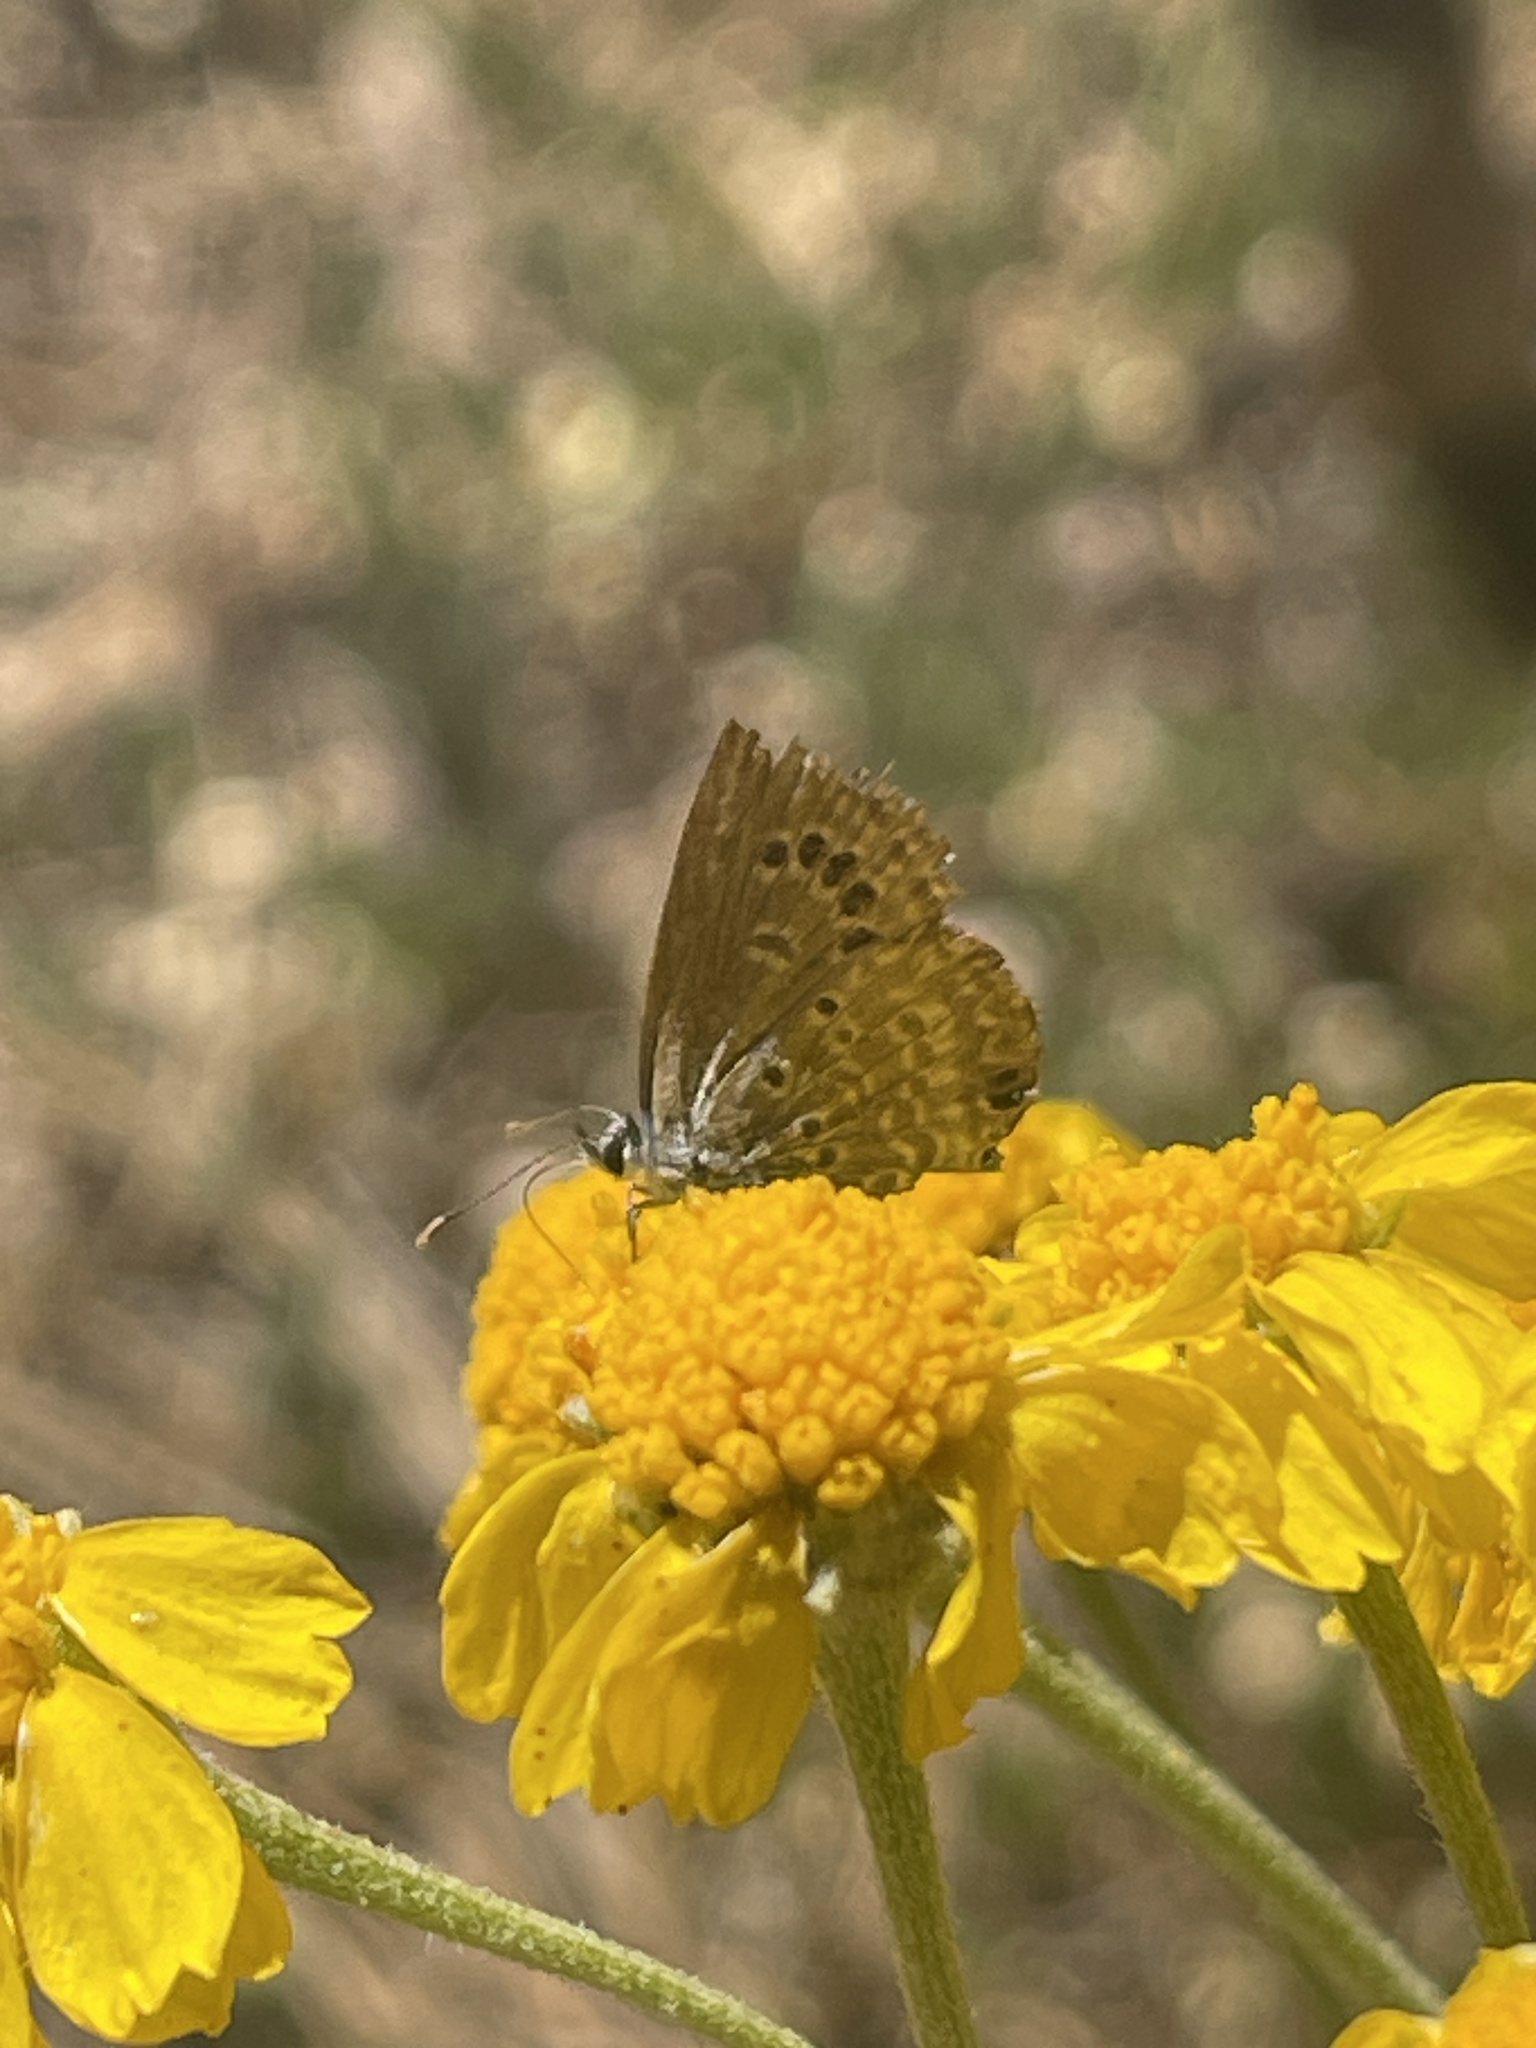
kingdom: Animalia
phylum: Arthropoda
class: Insecta
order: Lepidoptera
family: Lycaenidae
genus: Echinargus
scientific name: Echinargus isola
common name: Reakirt's blue
